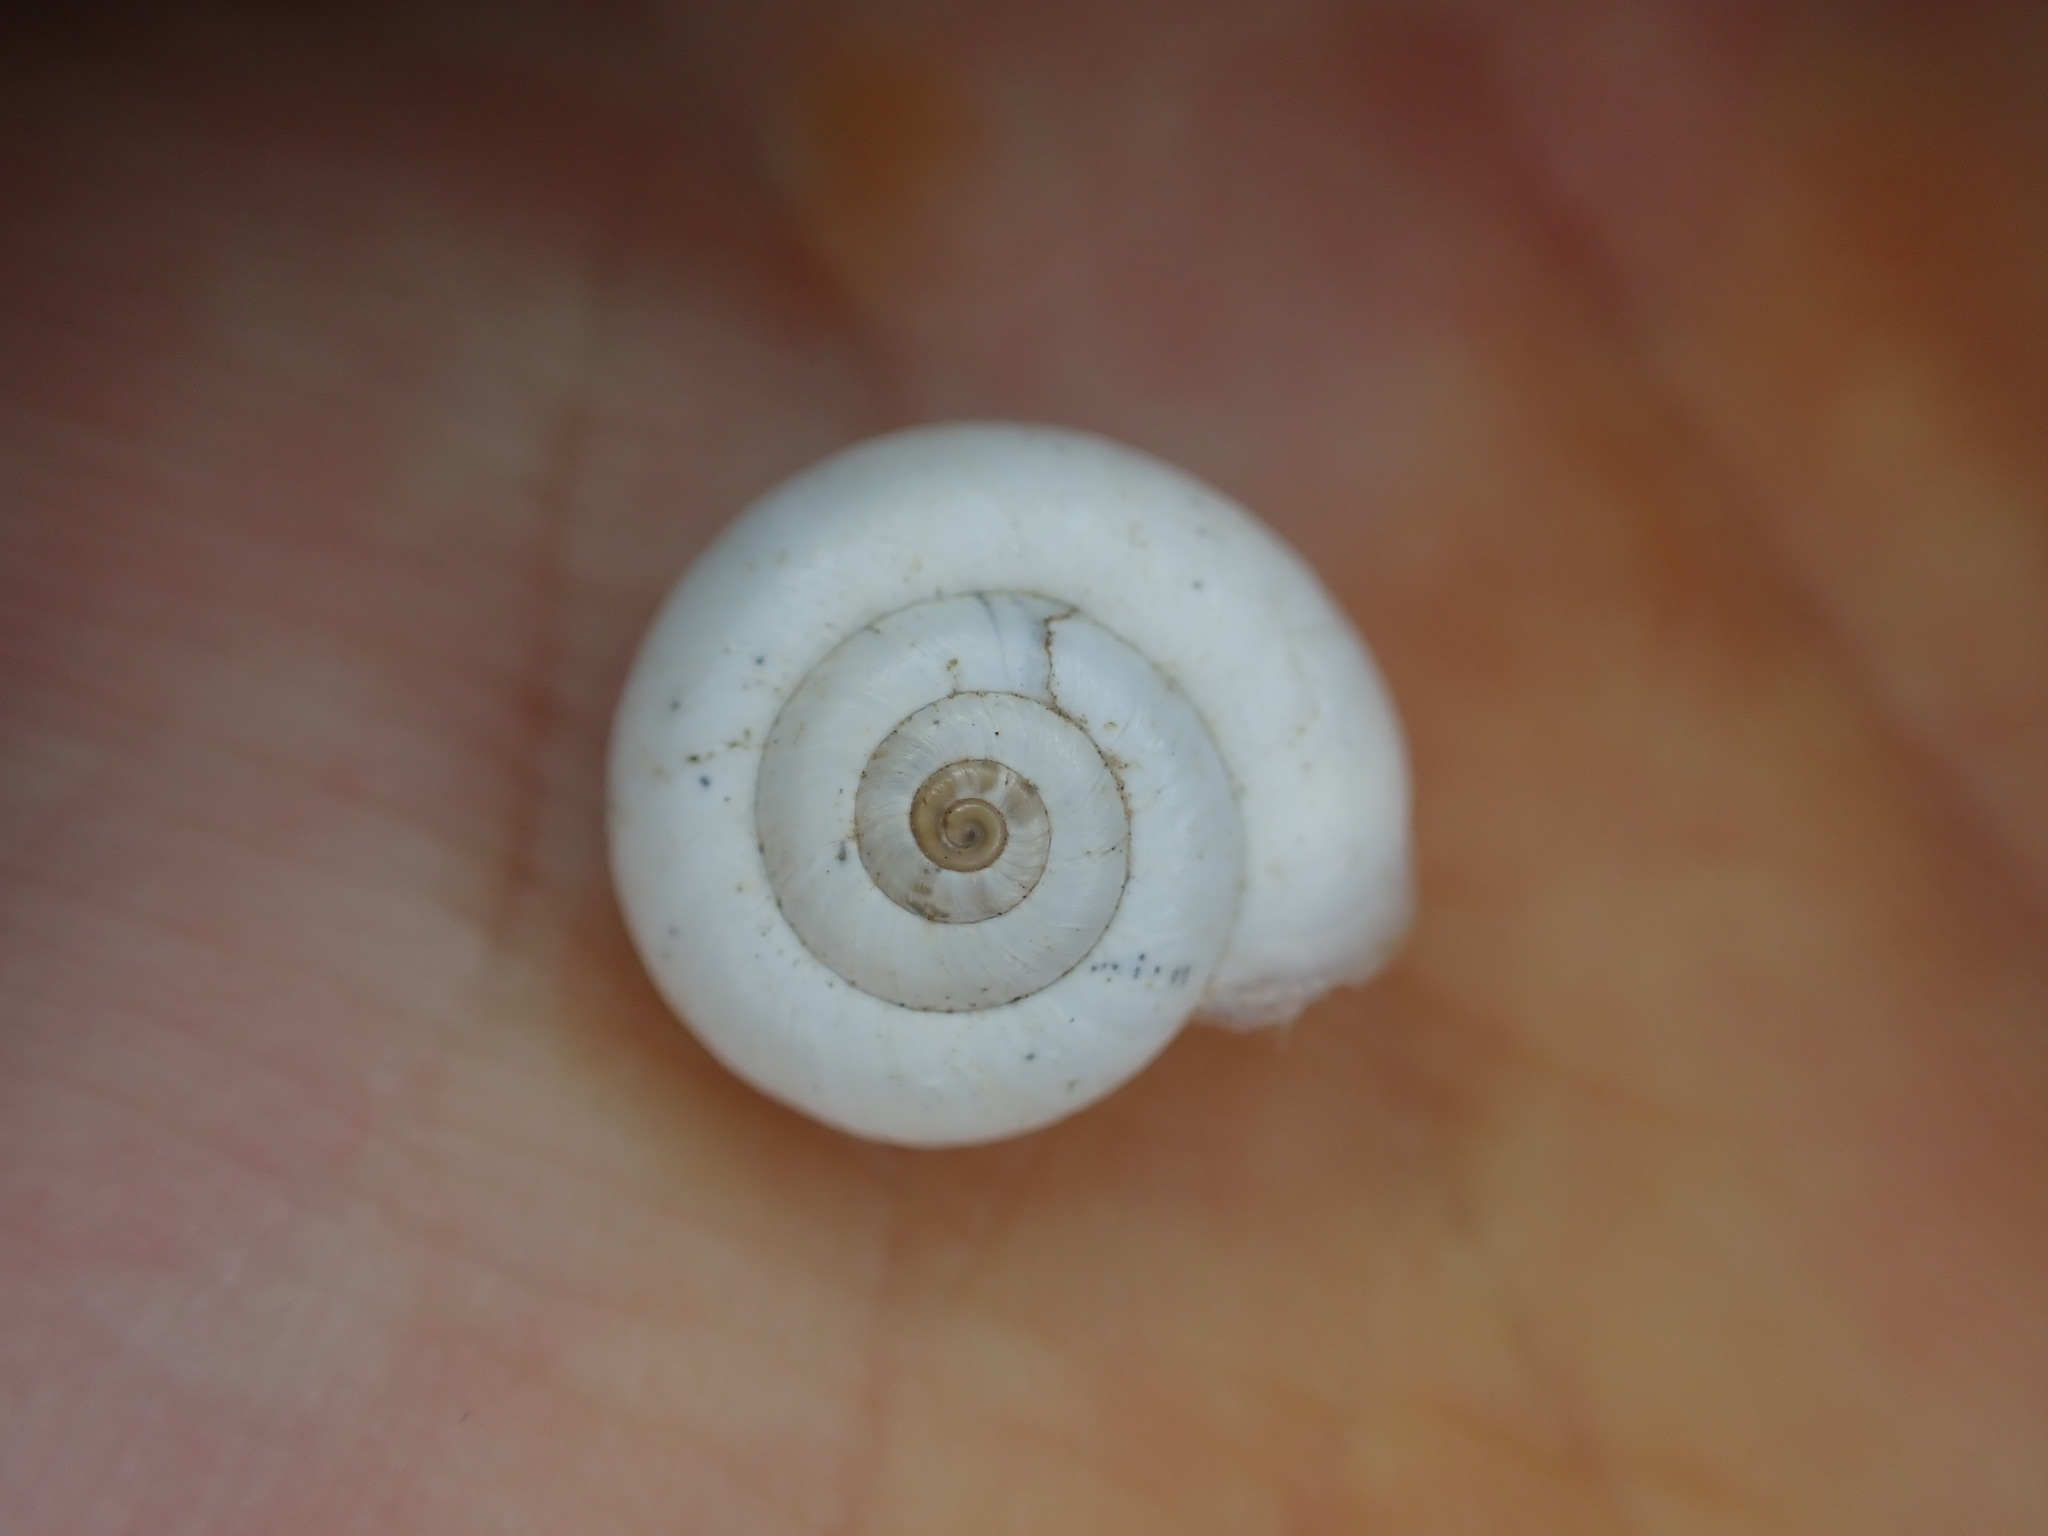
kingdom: Animalia
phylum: Mollusca
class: Gastropoda
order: Stylommatophora
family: Geomitridae
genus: Xeropicta
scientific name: Xeropicta derbentina
